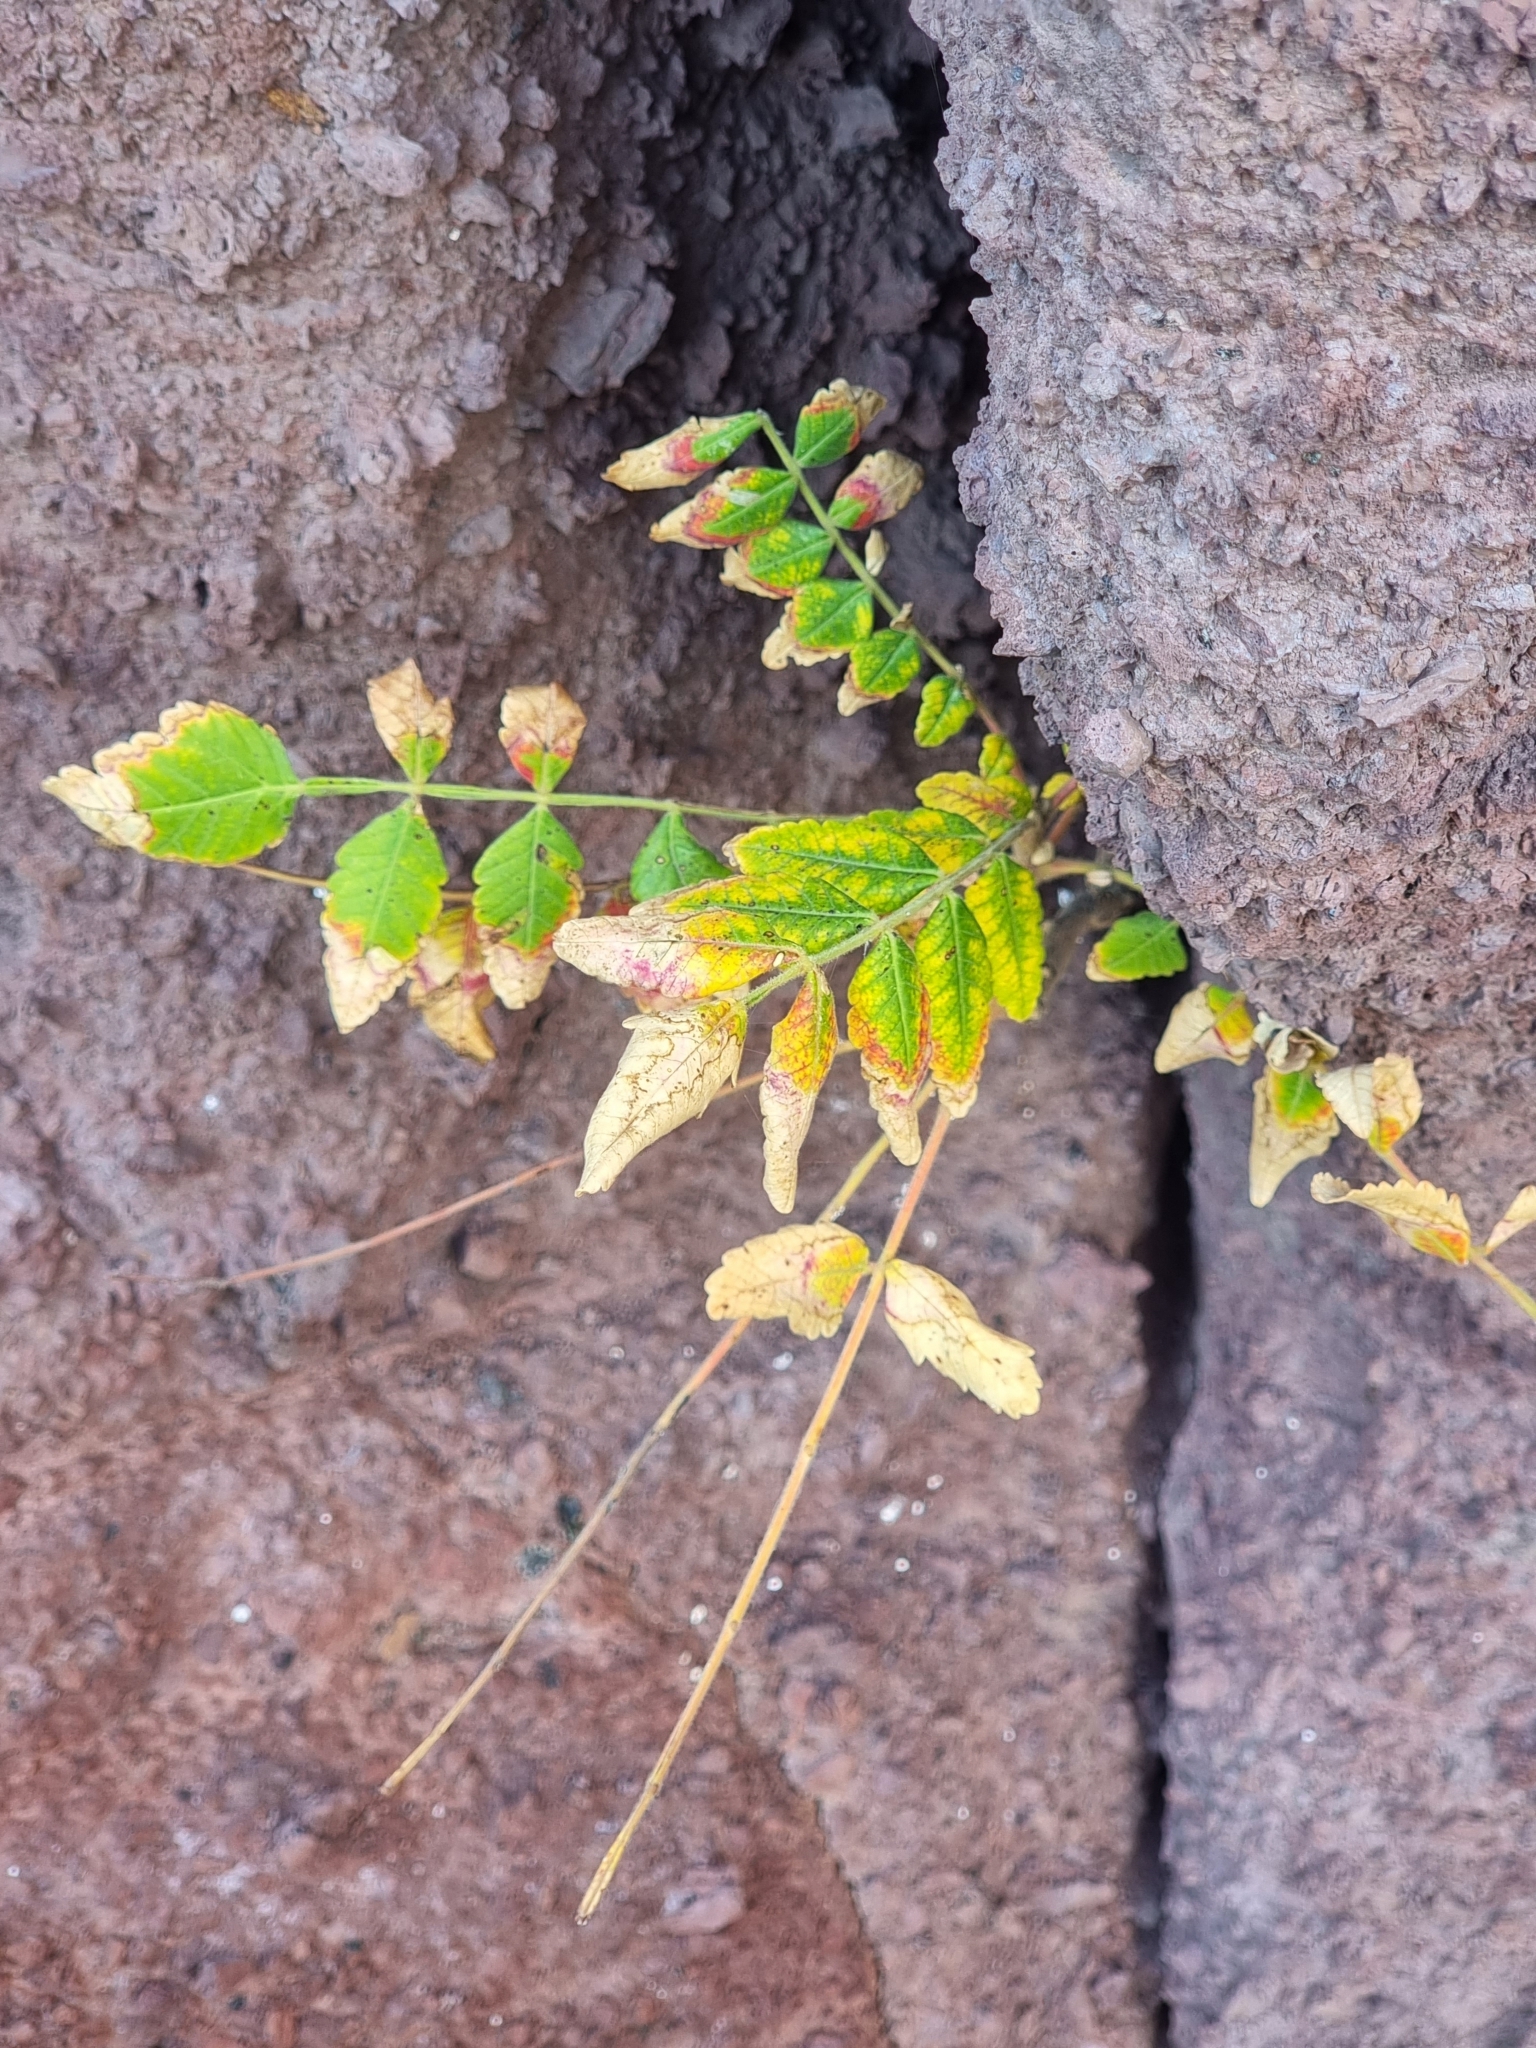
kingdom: Plantae
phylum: Tracheophyta
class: Magnoliopsida
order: Sapindales
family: Anacardiaceae
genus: Rhus
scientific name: Rhus coriaria
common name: Tanner's sumach
